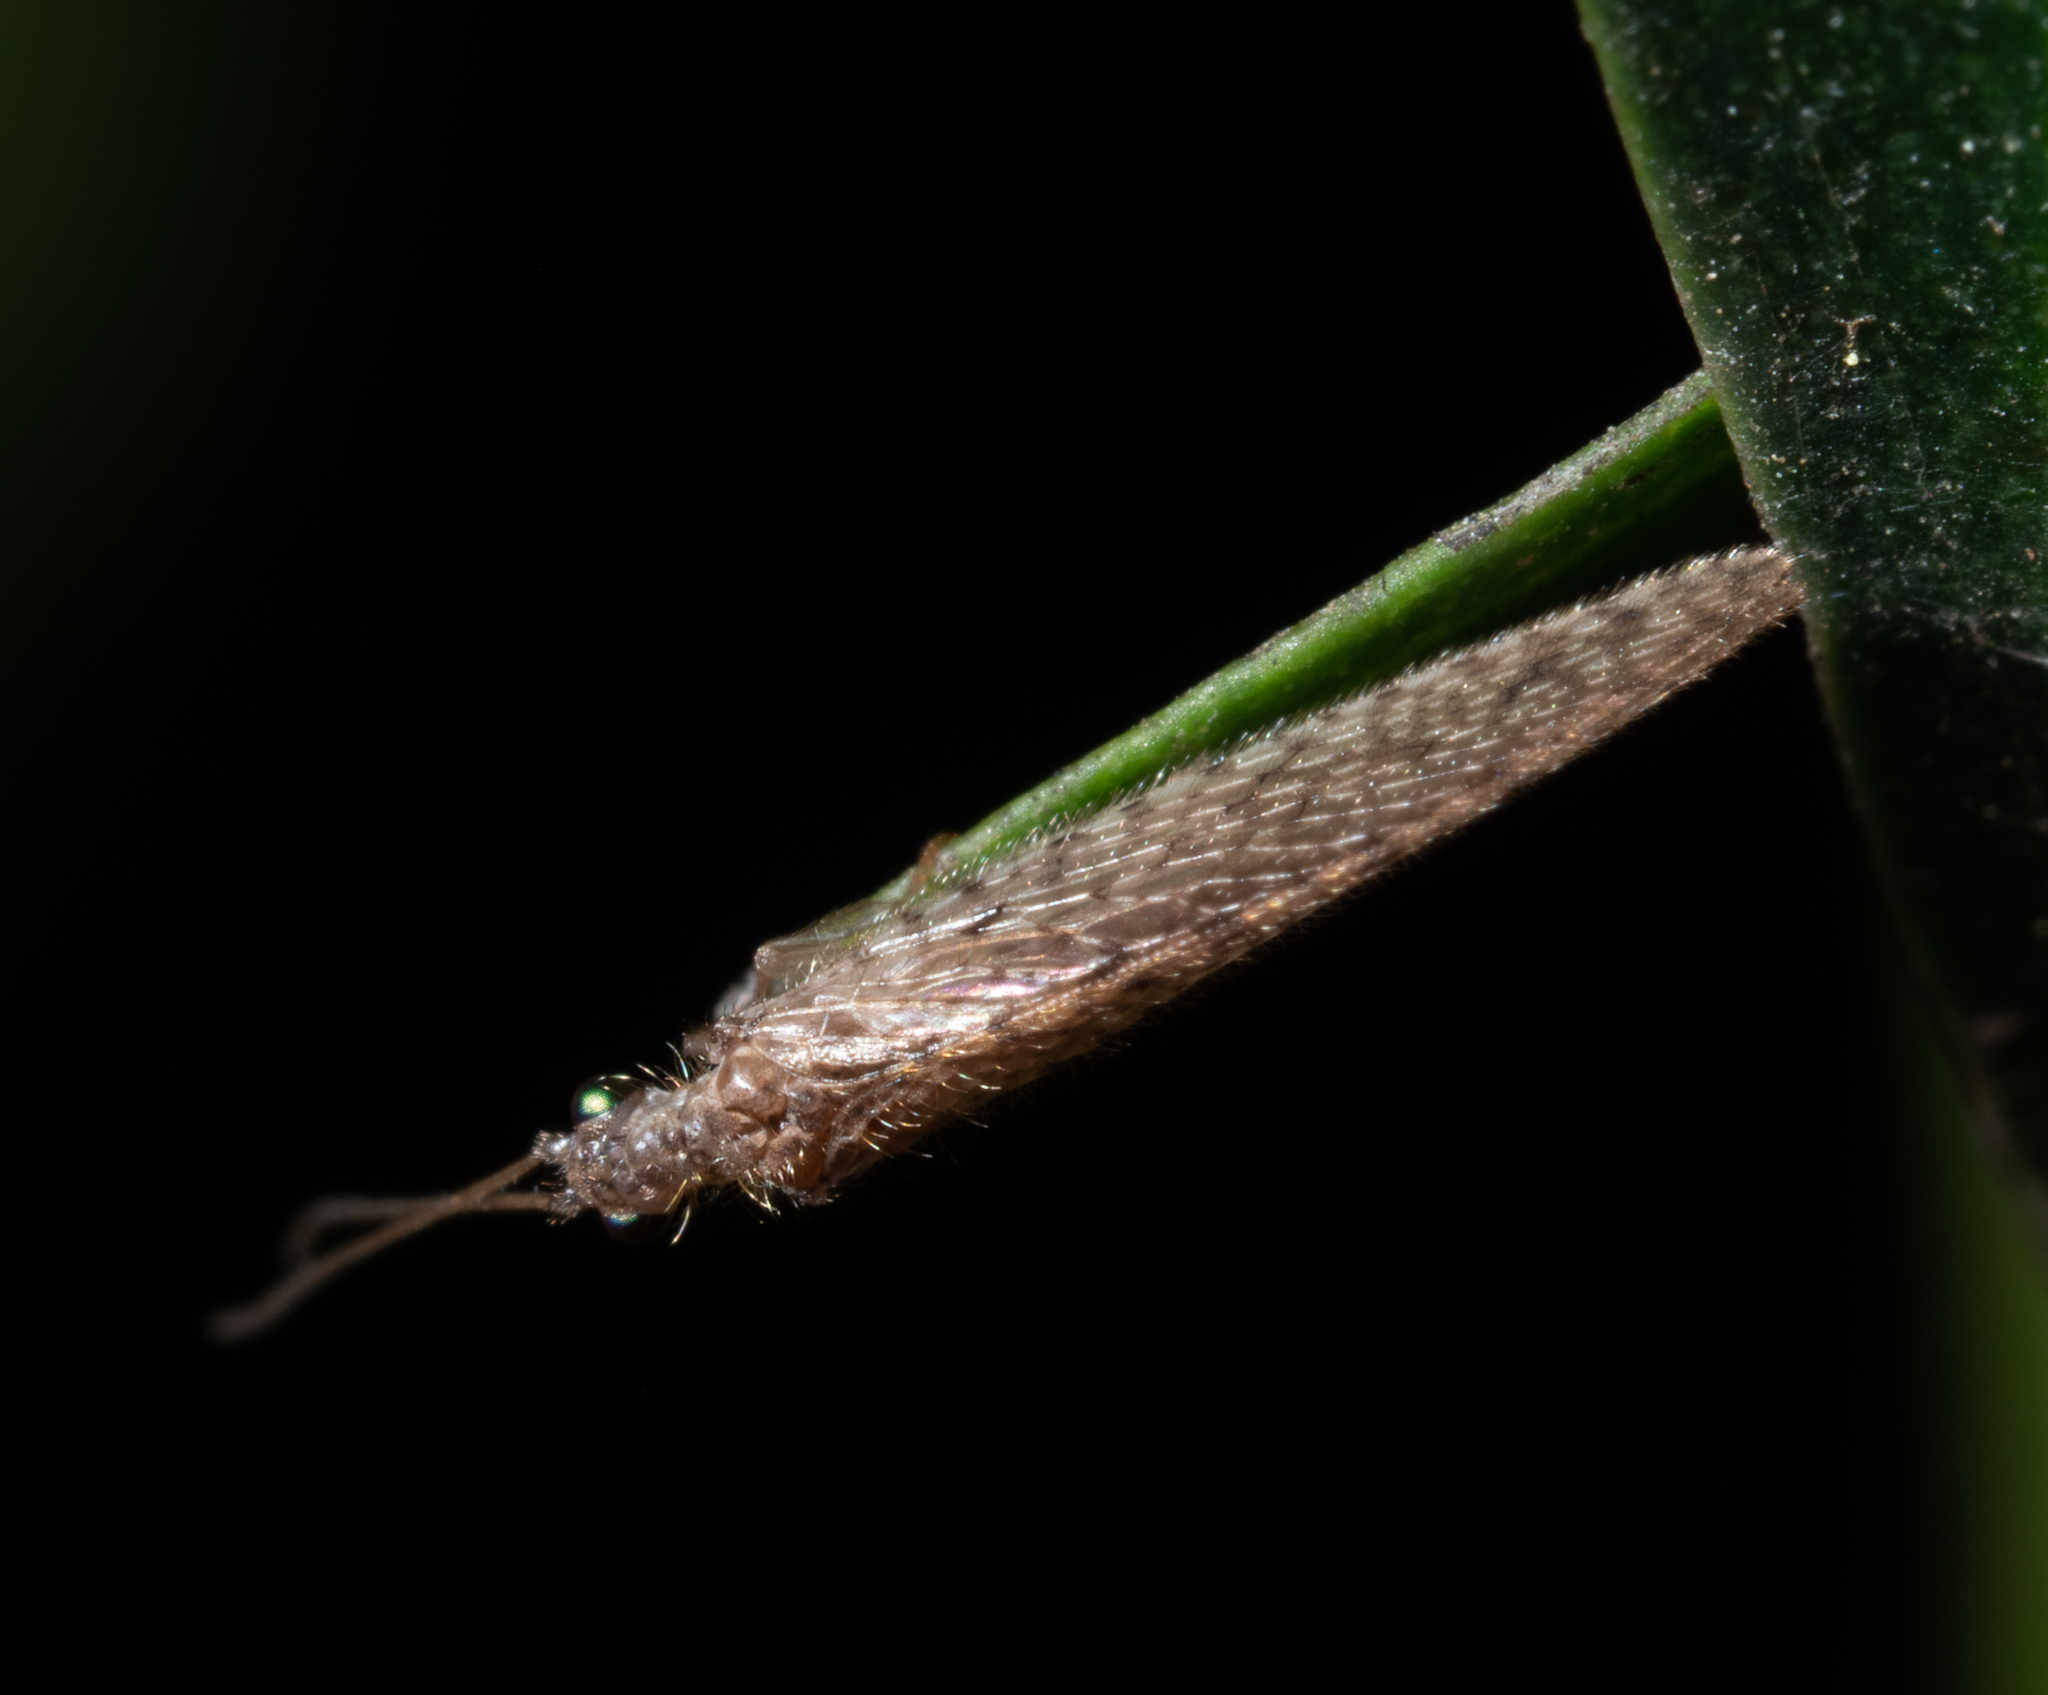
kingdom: Animalia
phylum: Arthropoda
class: Insecta
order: Neuroptera
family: Hemerobiidae
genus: Micromus
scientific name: Micromus tasmaniae
